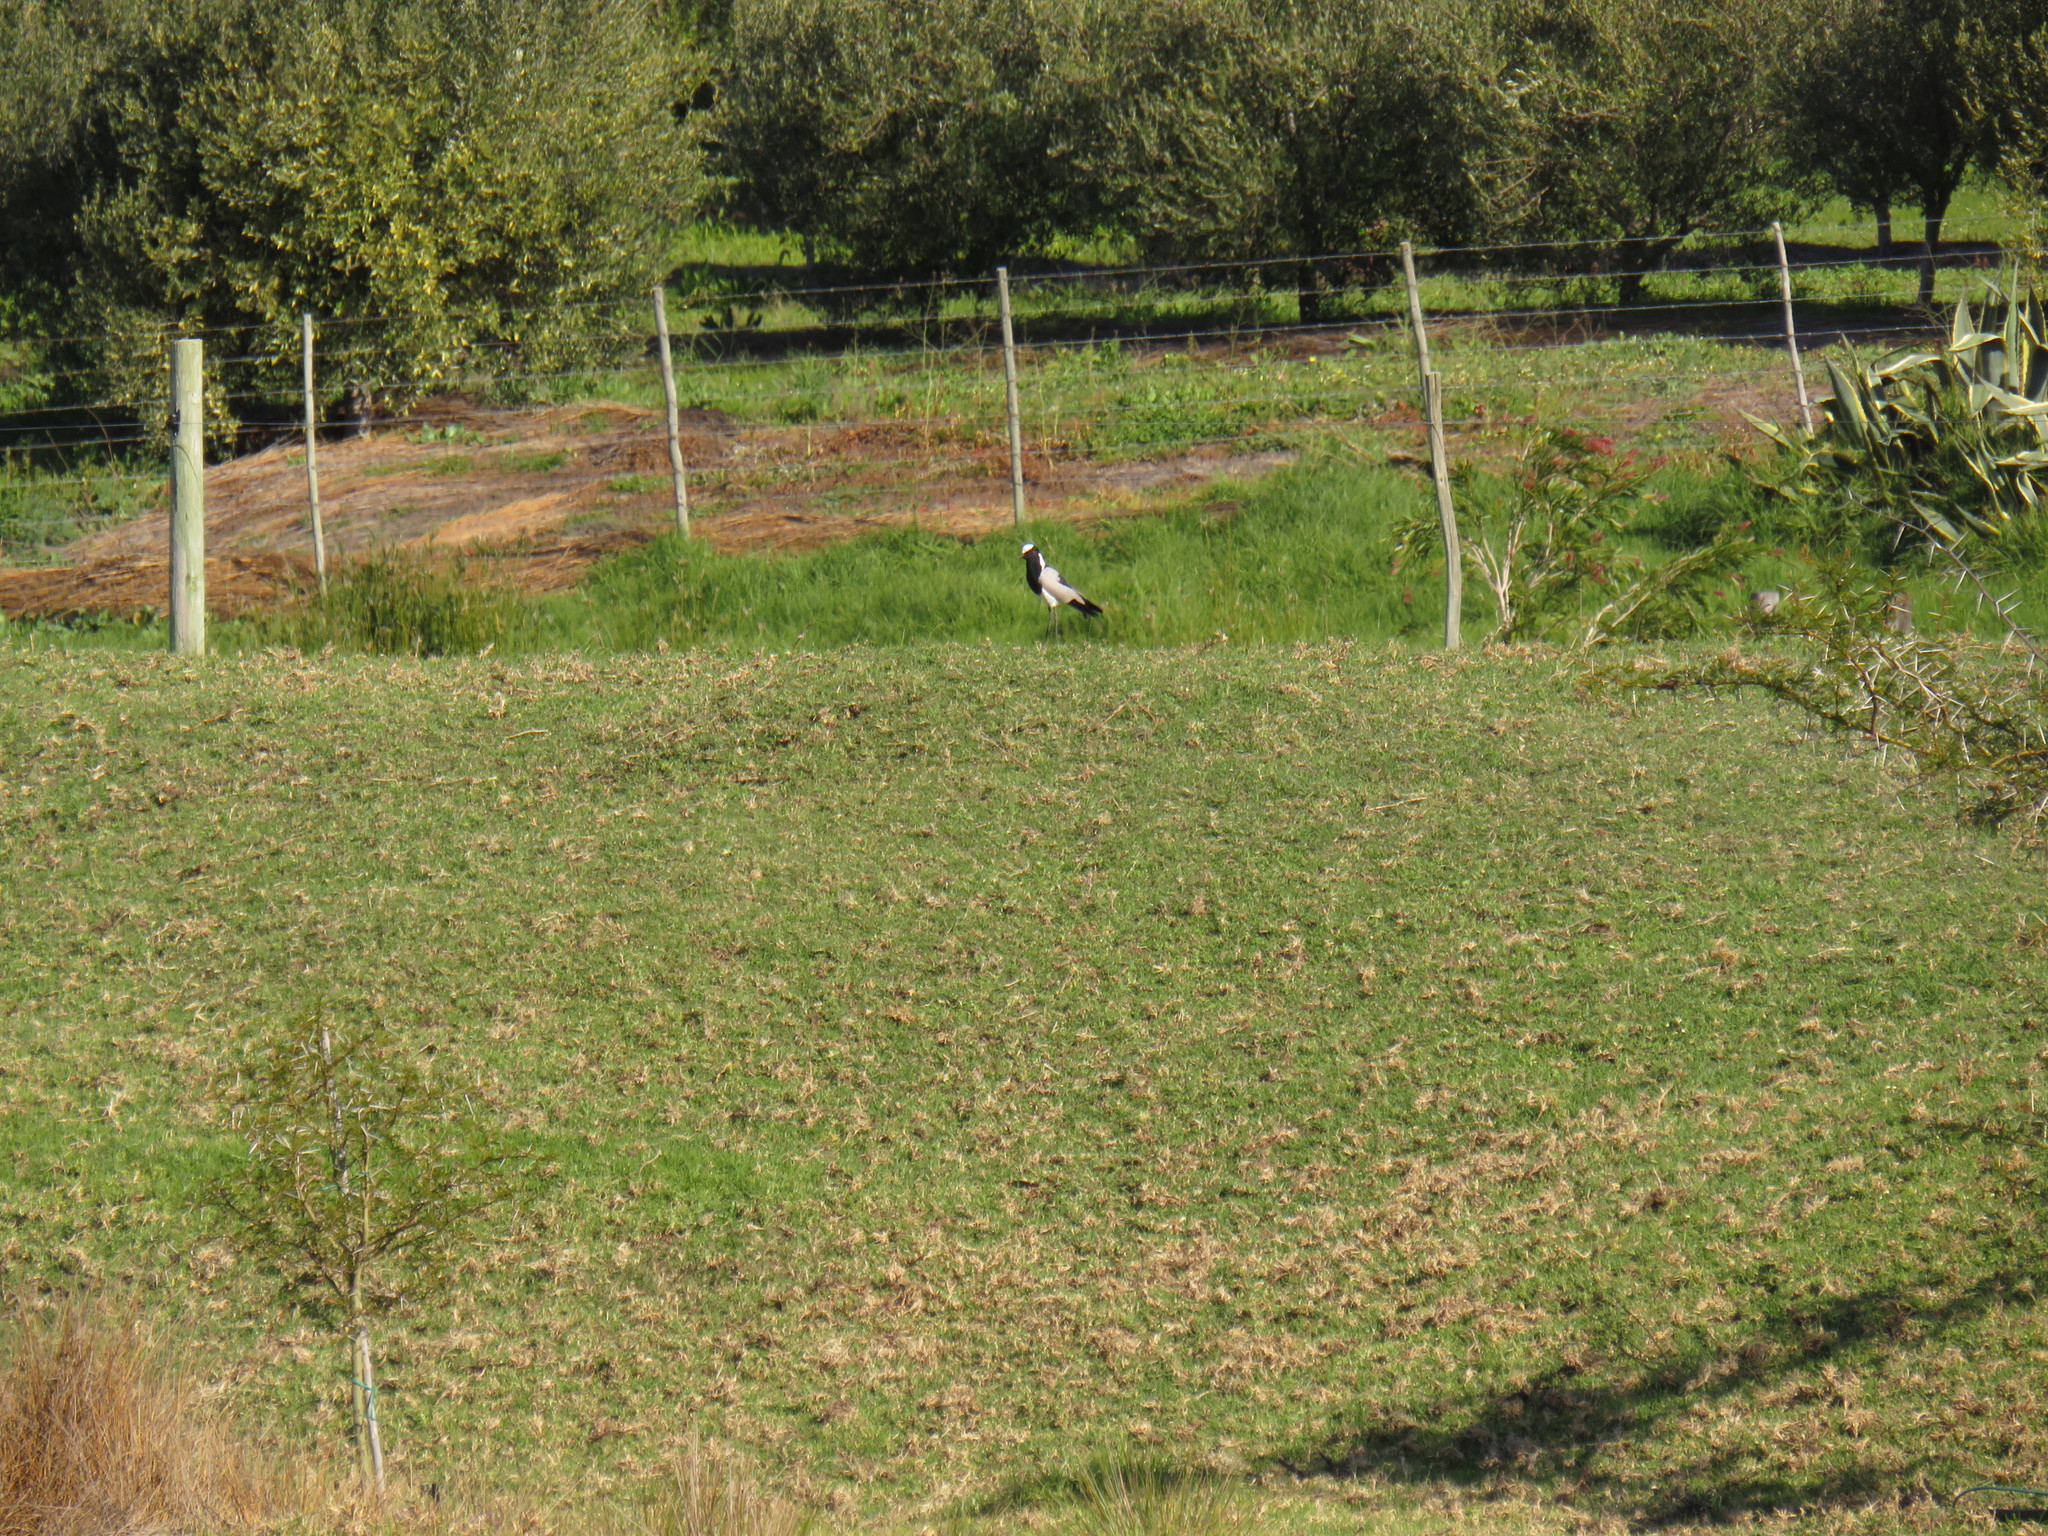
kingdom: Animalia
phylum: Chordata
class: Aves
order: Charadriiformes
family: Charadriidae
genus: Vanellus
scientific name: Vanellus armatus
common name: Blacksmith lapwing
